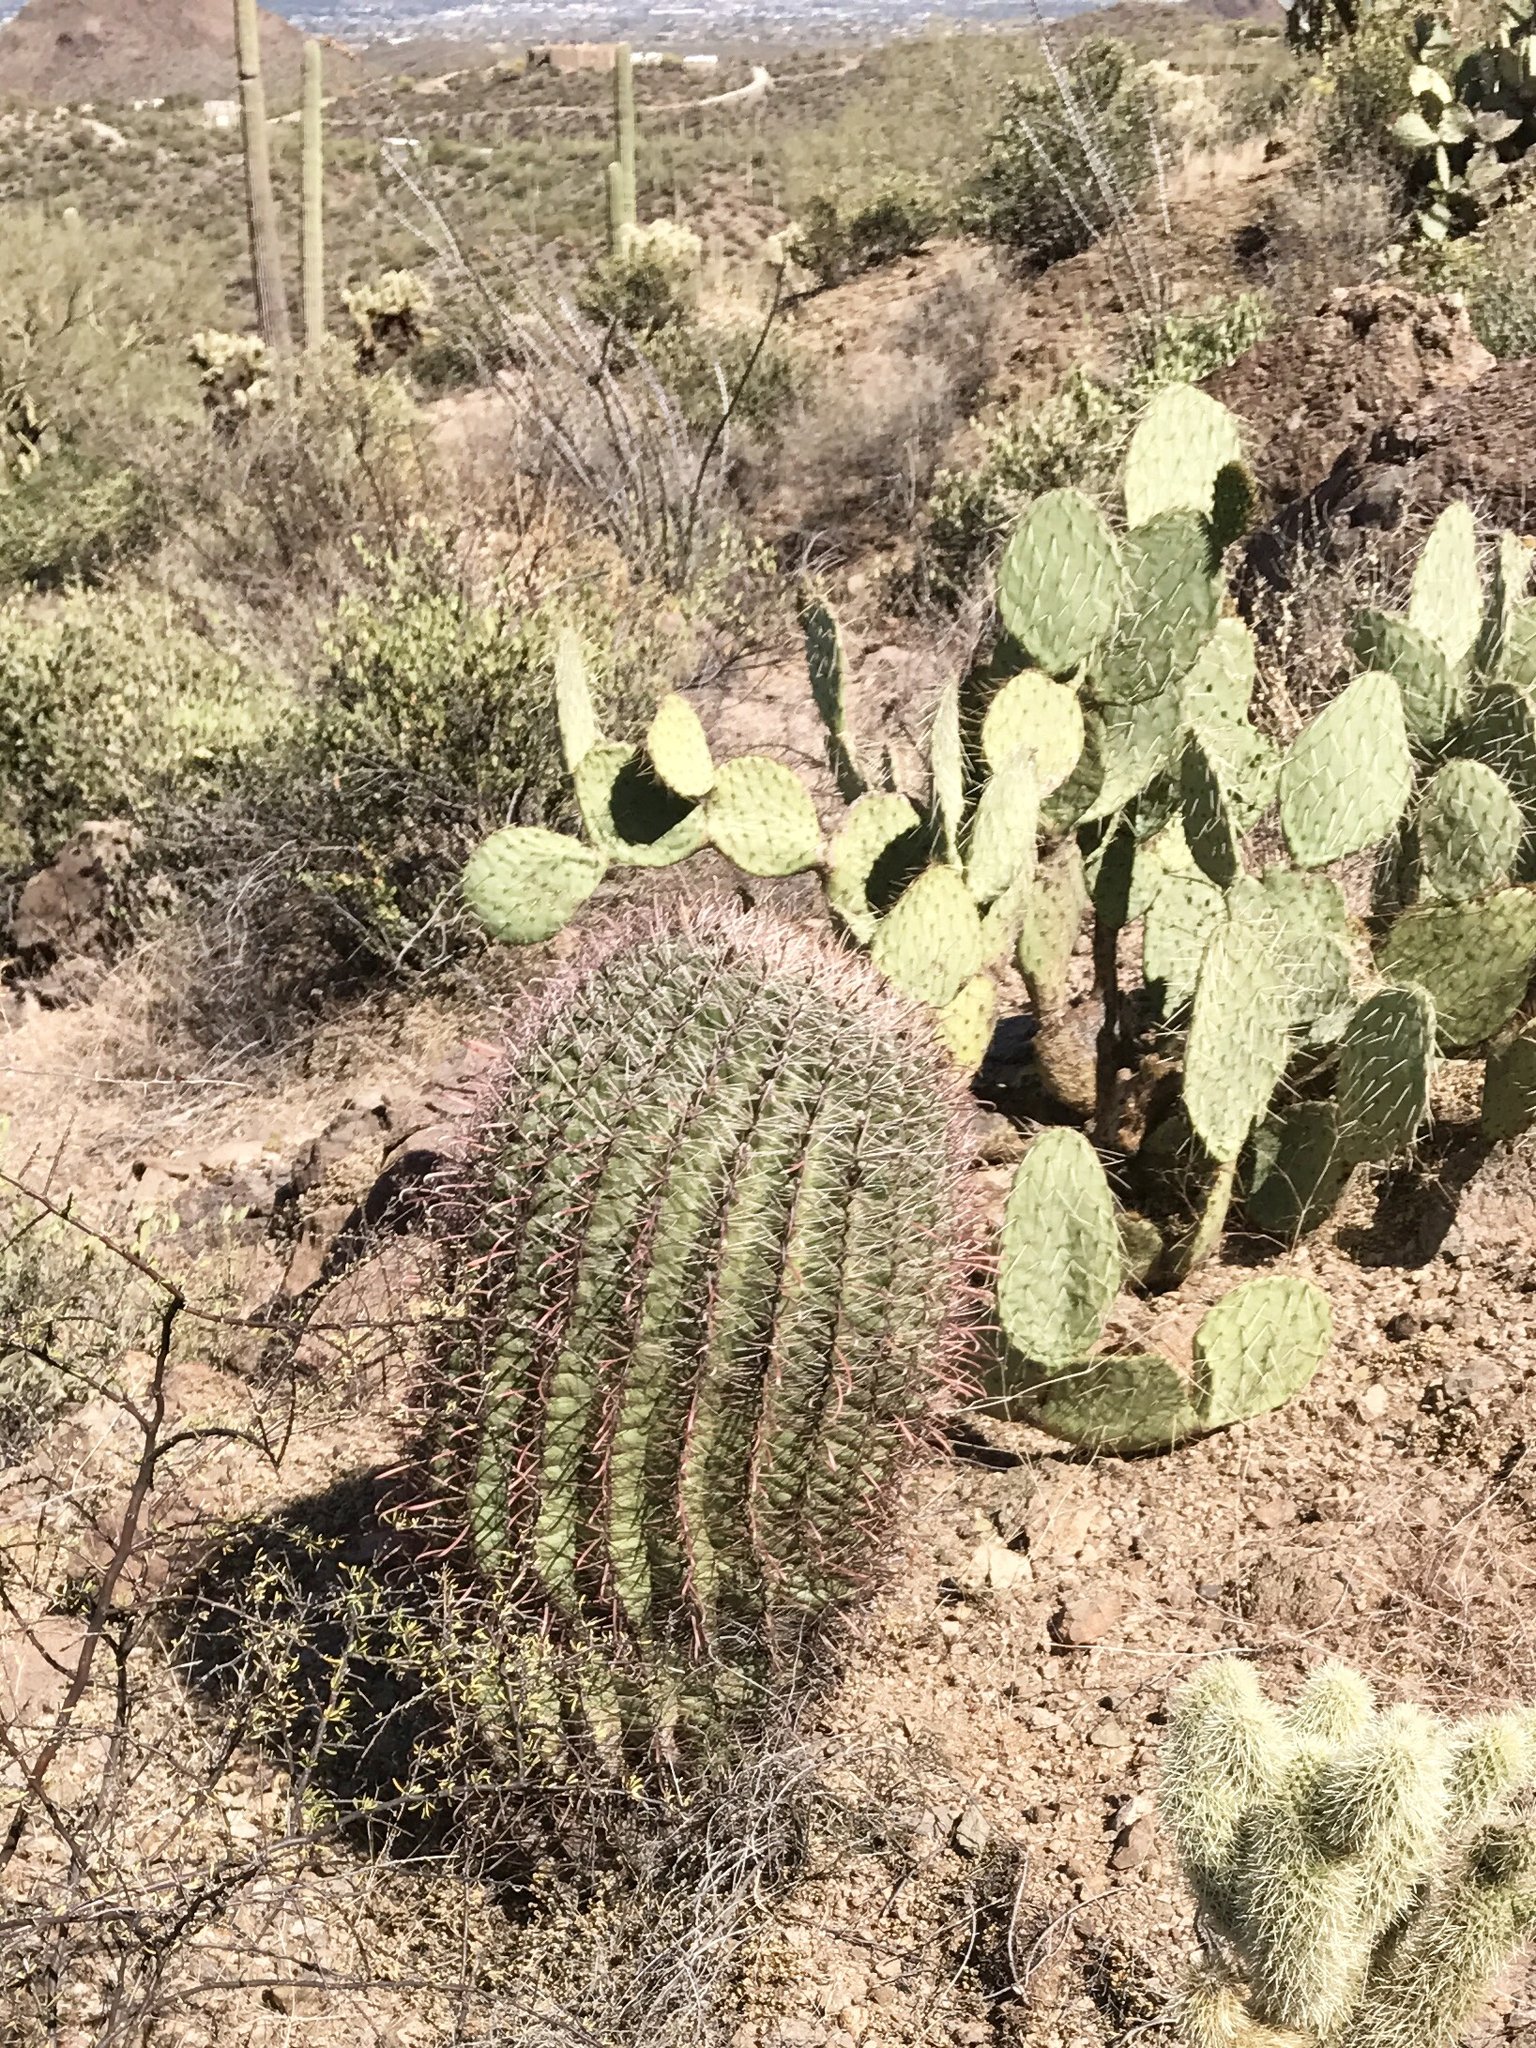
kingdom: Plantae
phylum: Tracheophyta
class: Magnoliopsida
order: Caryophyllales
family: Cactaceae
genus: Ferocactus
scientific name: Ferocactus wislizeni
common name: Candy barrel cactus
